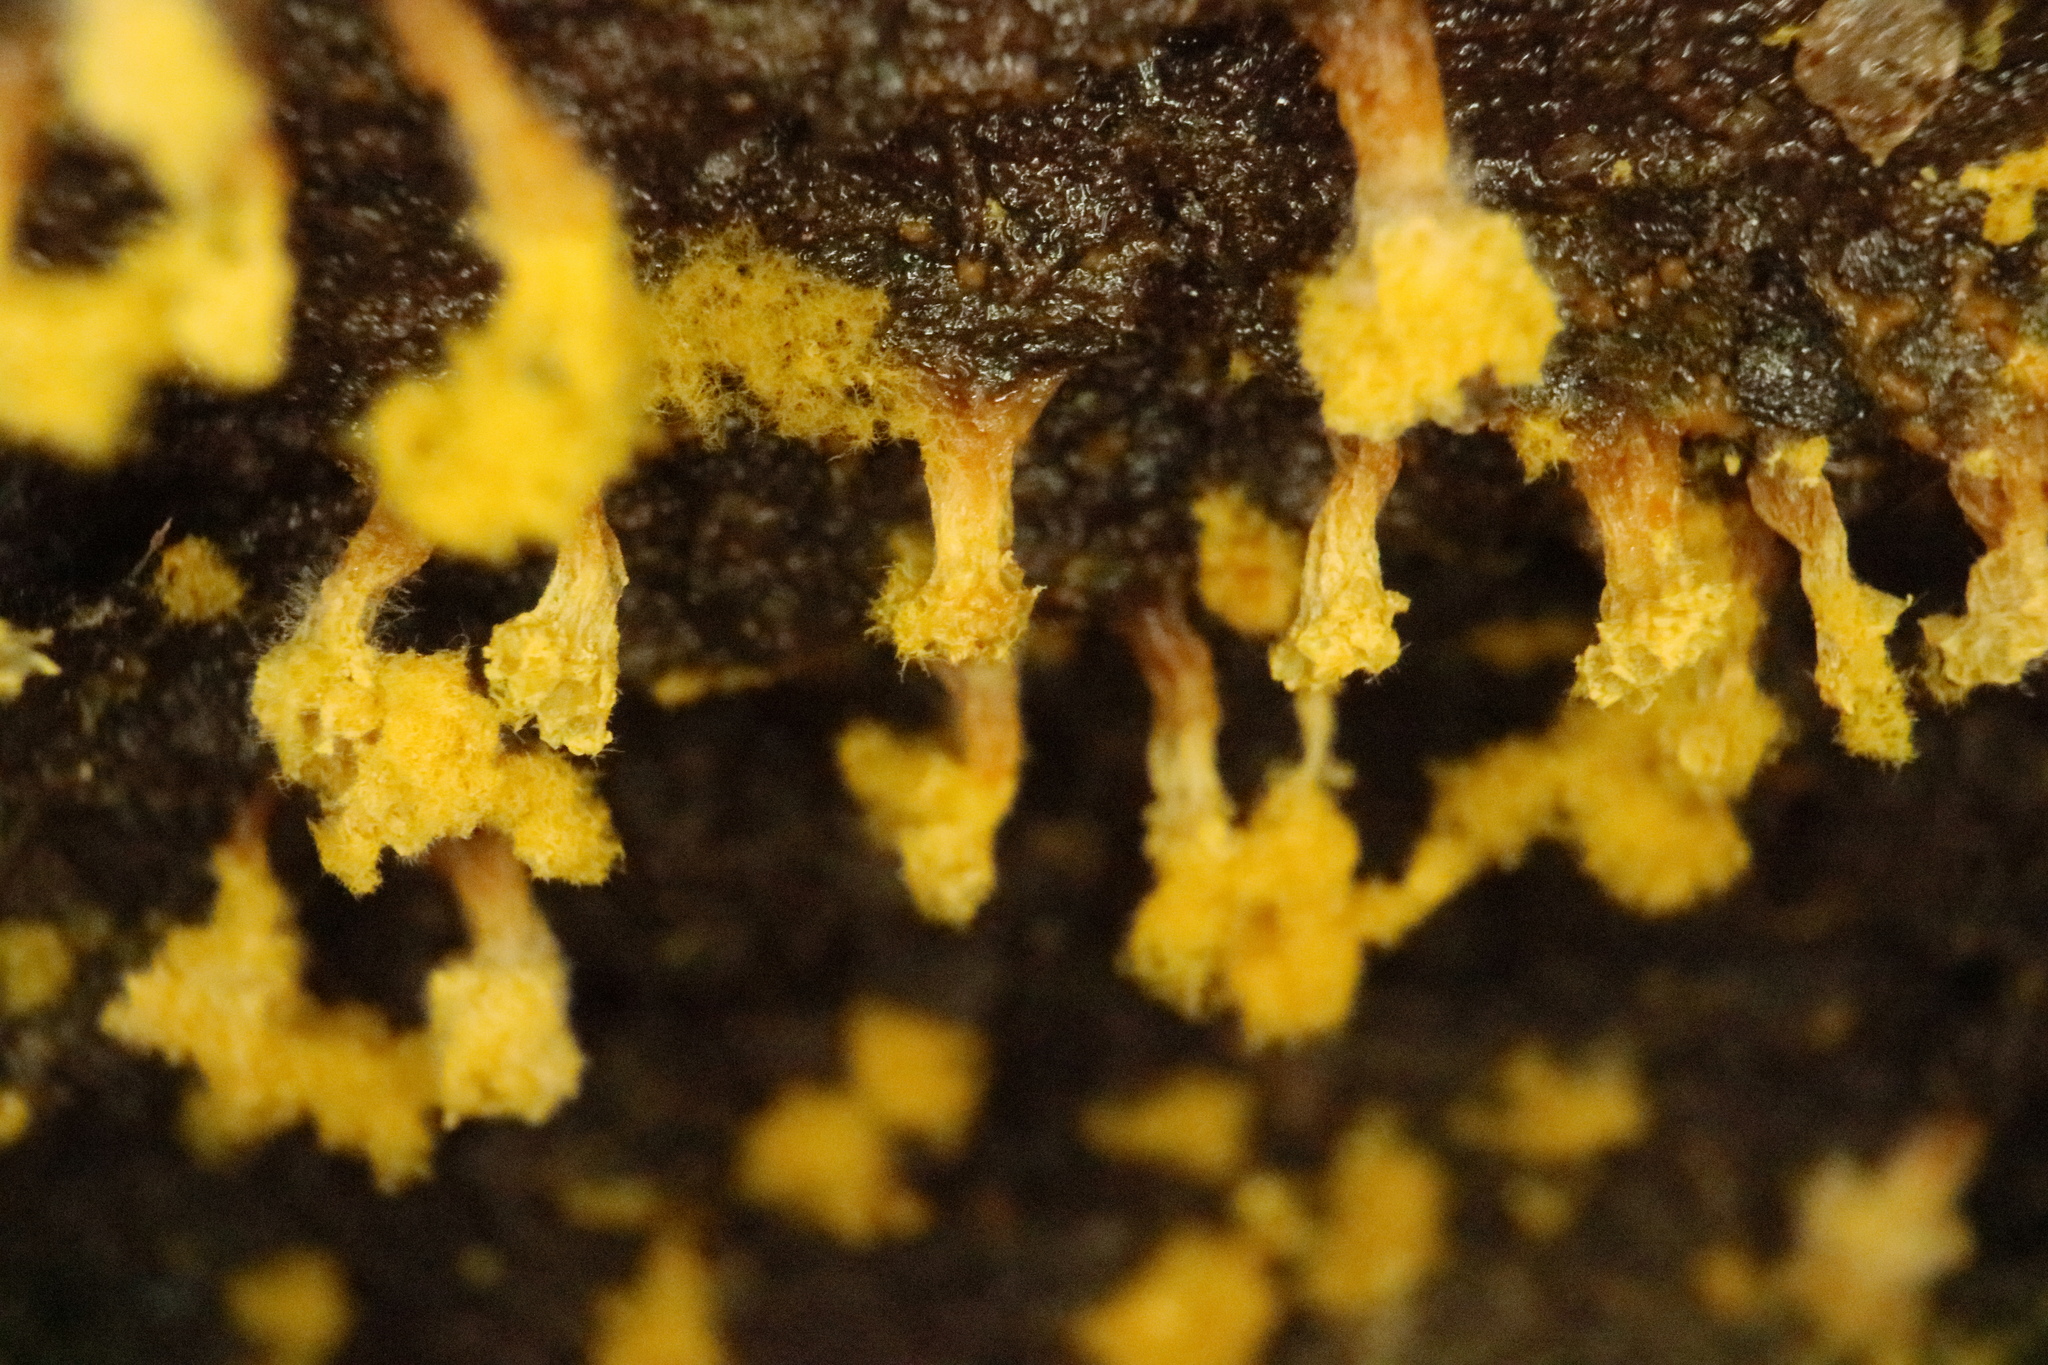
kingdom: Protozoa
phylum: Mycetozoa
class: Myxomycetes
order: Trichiales
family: Trichiaceae
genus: Oligonema
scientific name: Oligonema verrucosum
